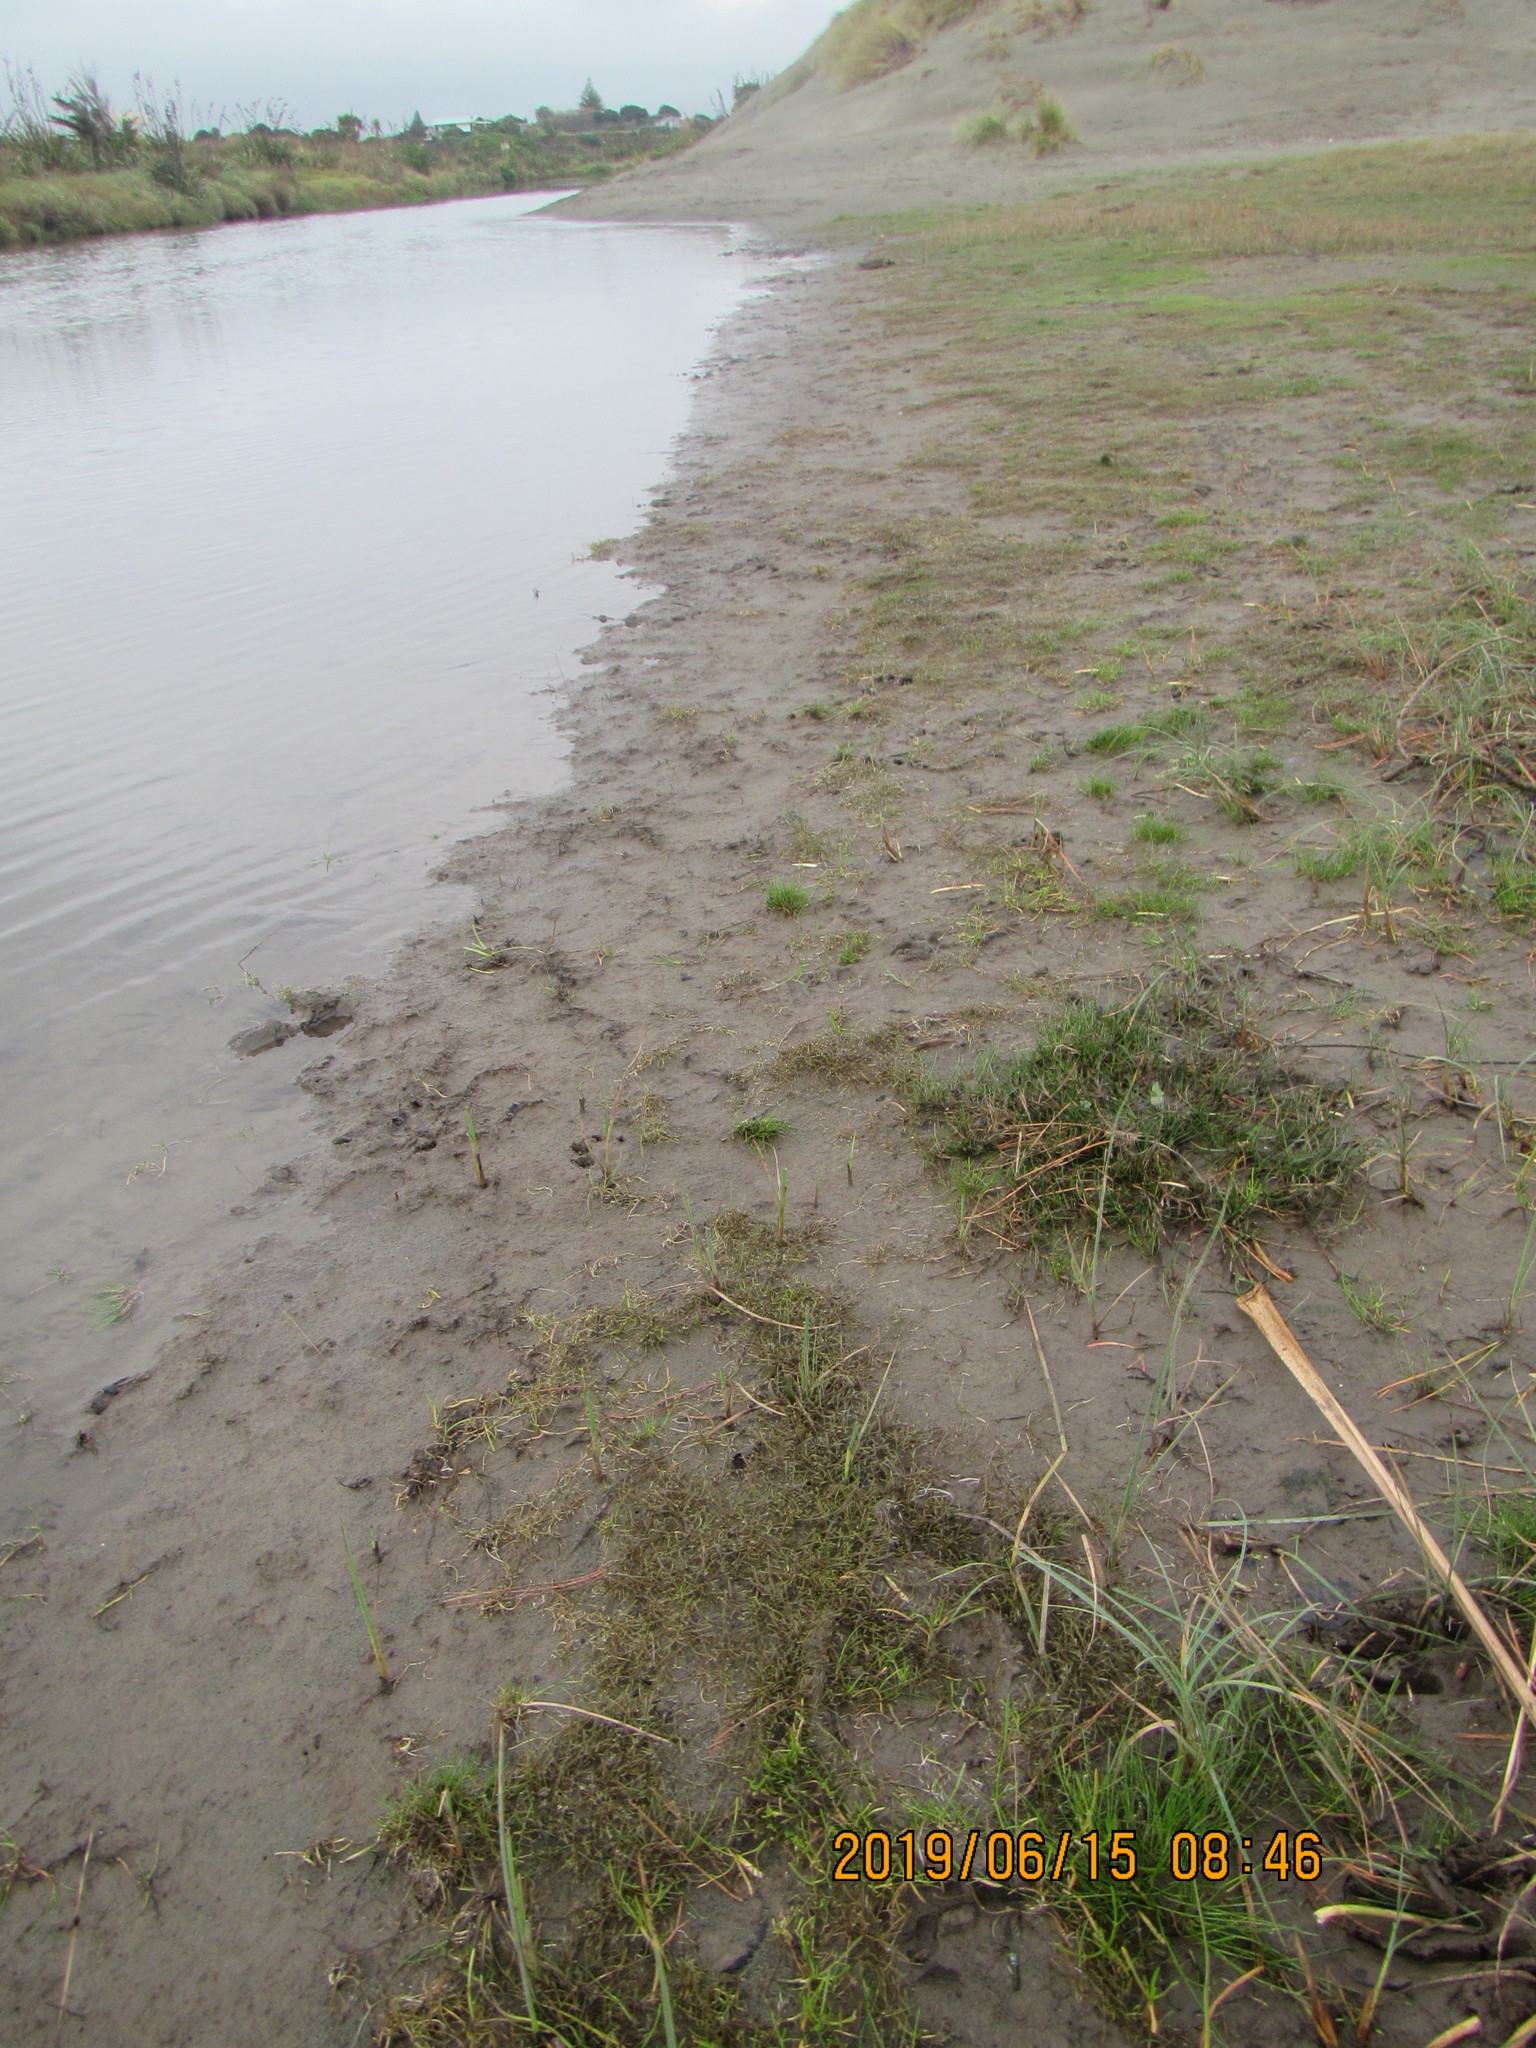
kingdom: Plantae
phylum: Tracheophyta
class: Magnoliopsida
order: Lamiales
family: Scrophulariaceae
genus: Limosella
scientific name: Limosella australis
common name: Welsh mudwort
